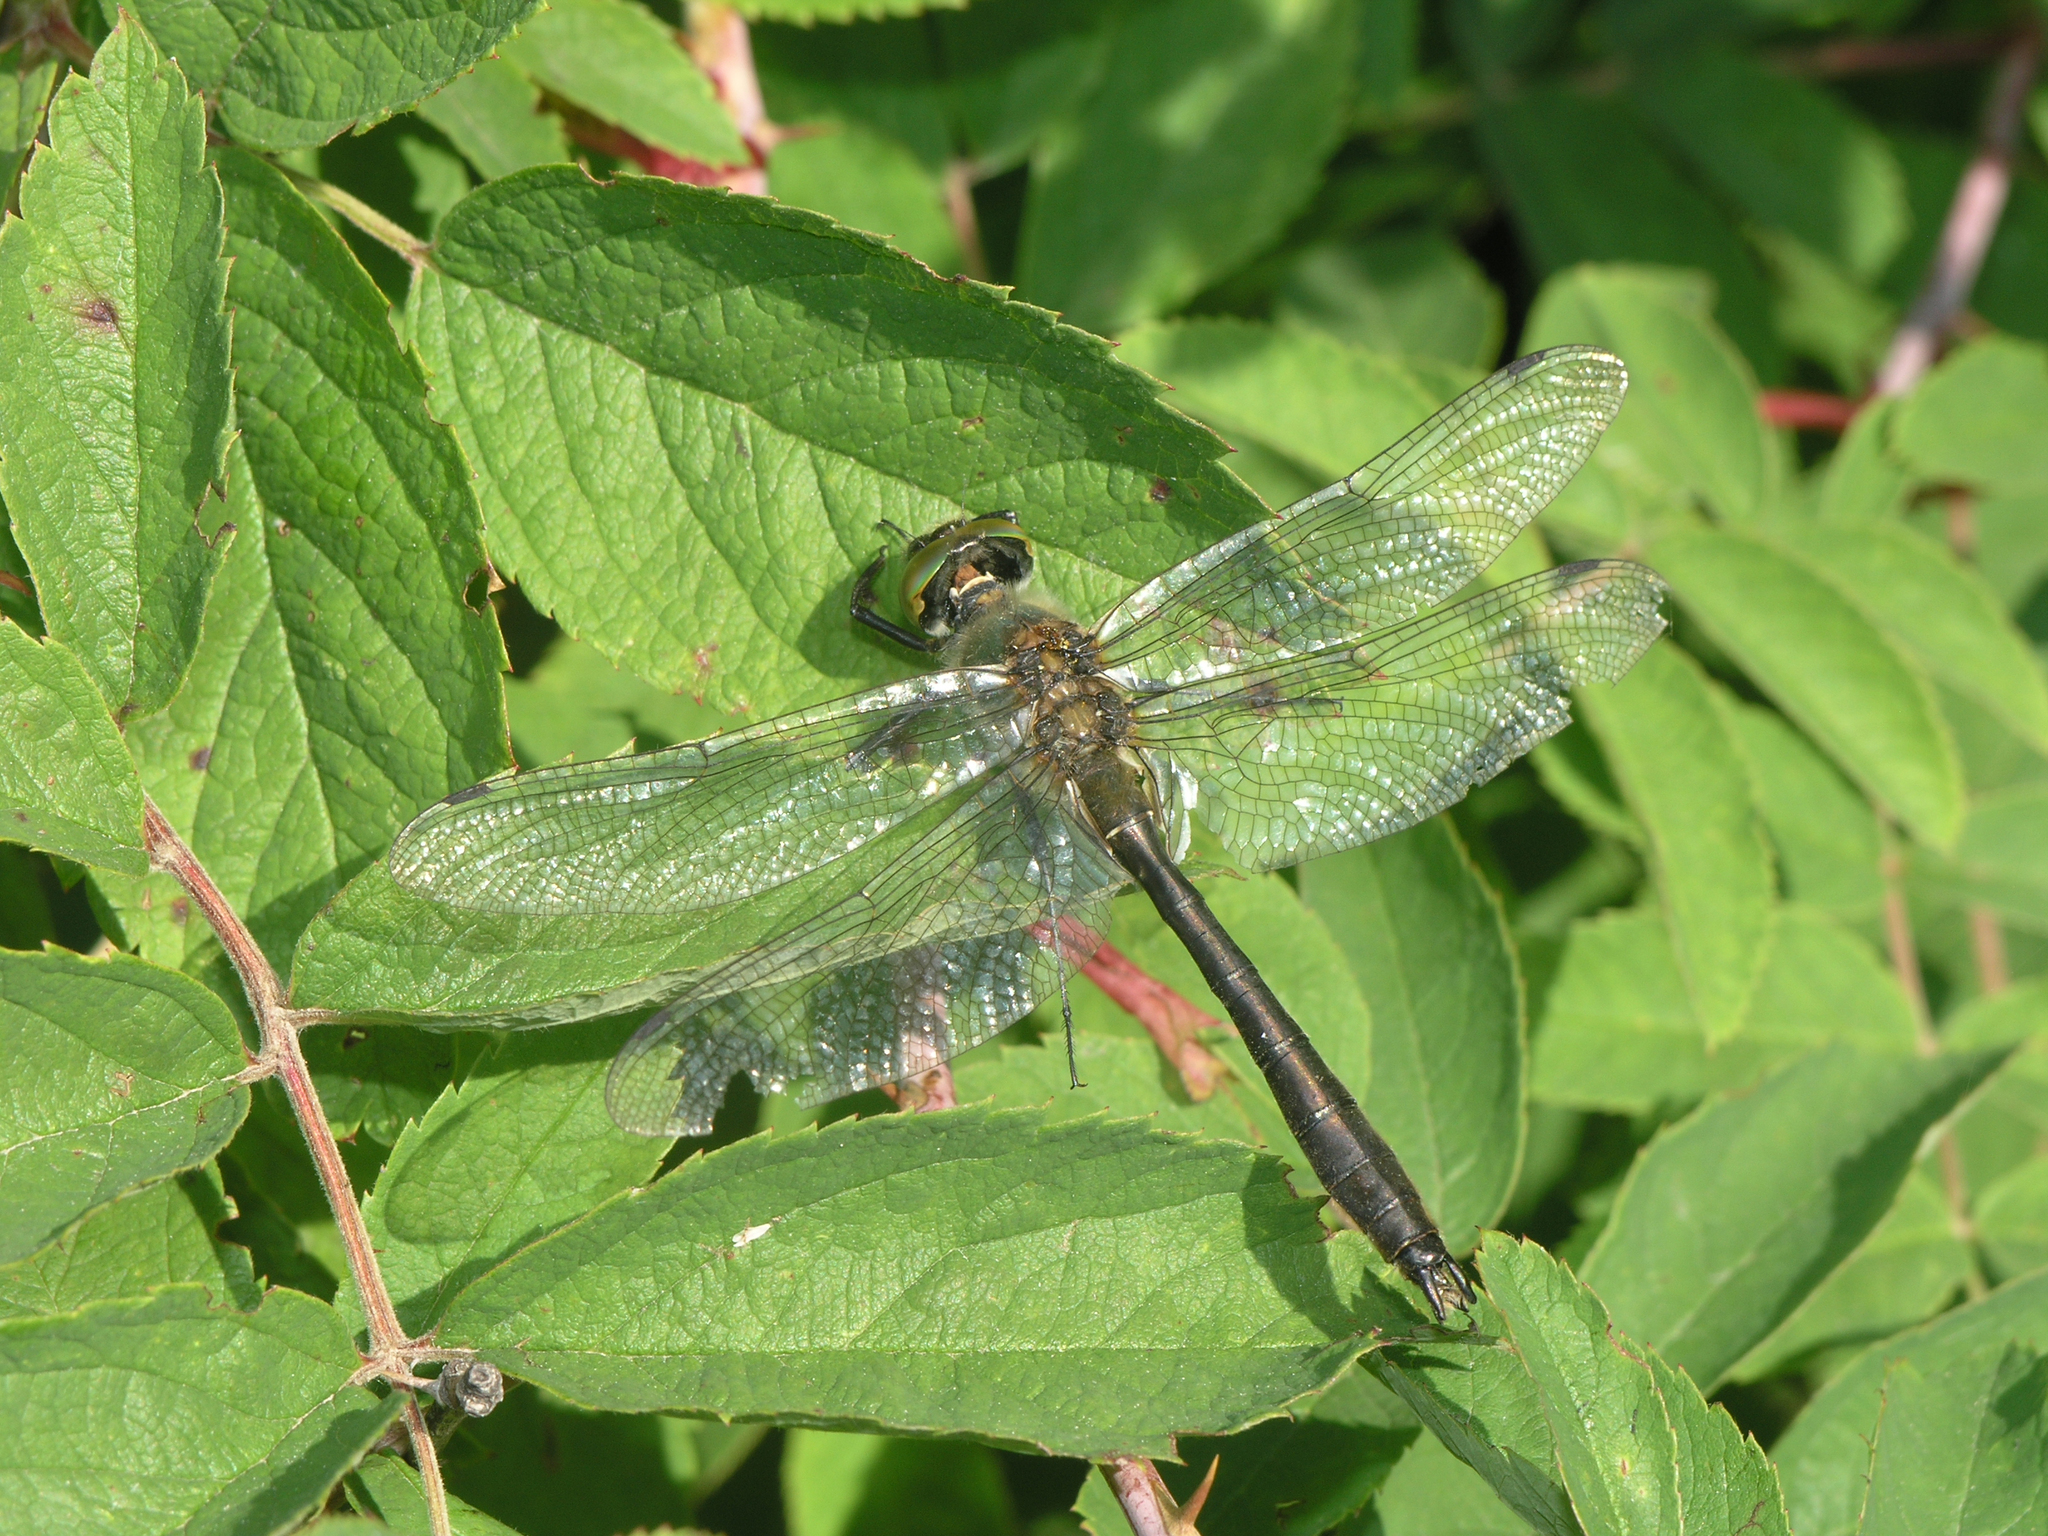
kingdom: Animalia
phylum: Arthropoda
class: Insecta
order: Odonata
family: Corduliidae
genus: Cordulia
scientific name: Cordulia aenea
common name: Downy emerald
